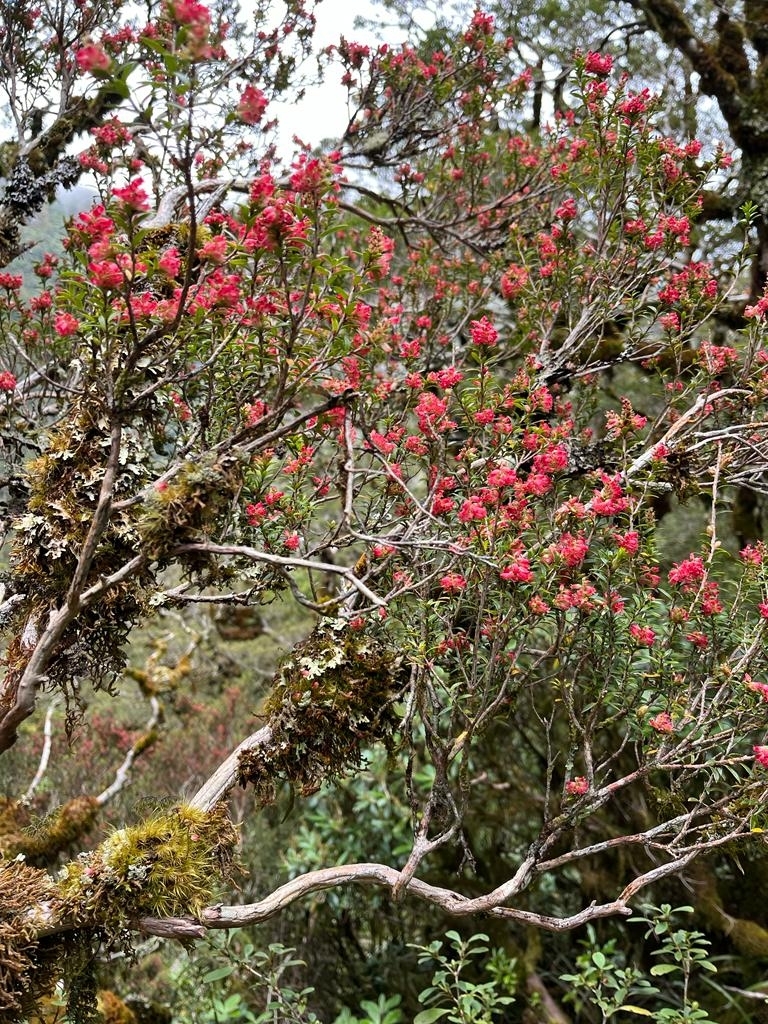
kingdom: Plantae
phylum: Tracheophyta
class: Magnoliopsida
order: Ericales
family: Ericaceae
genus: Archeria
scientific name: Archeria traversii
